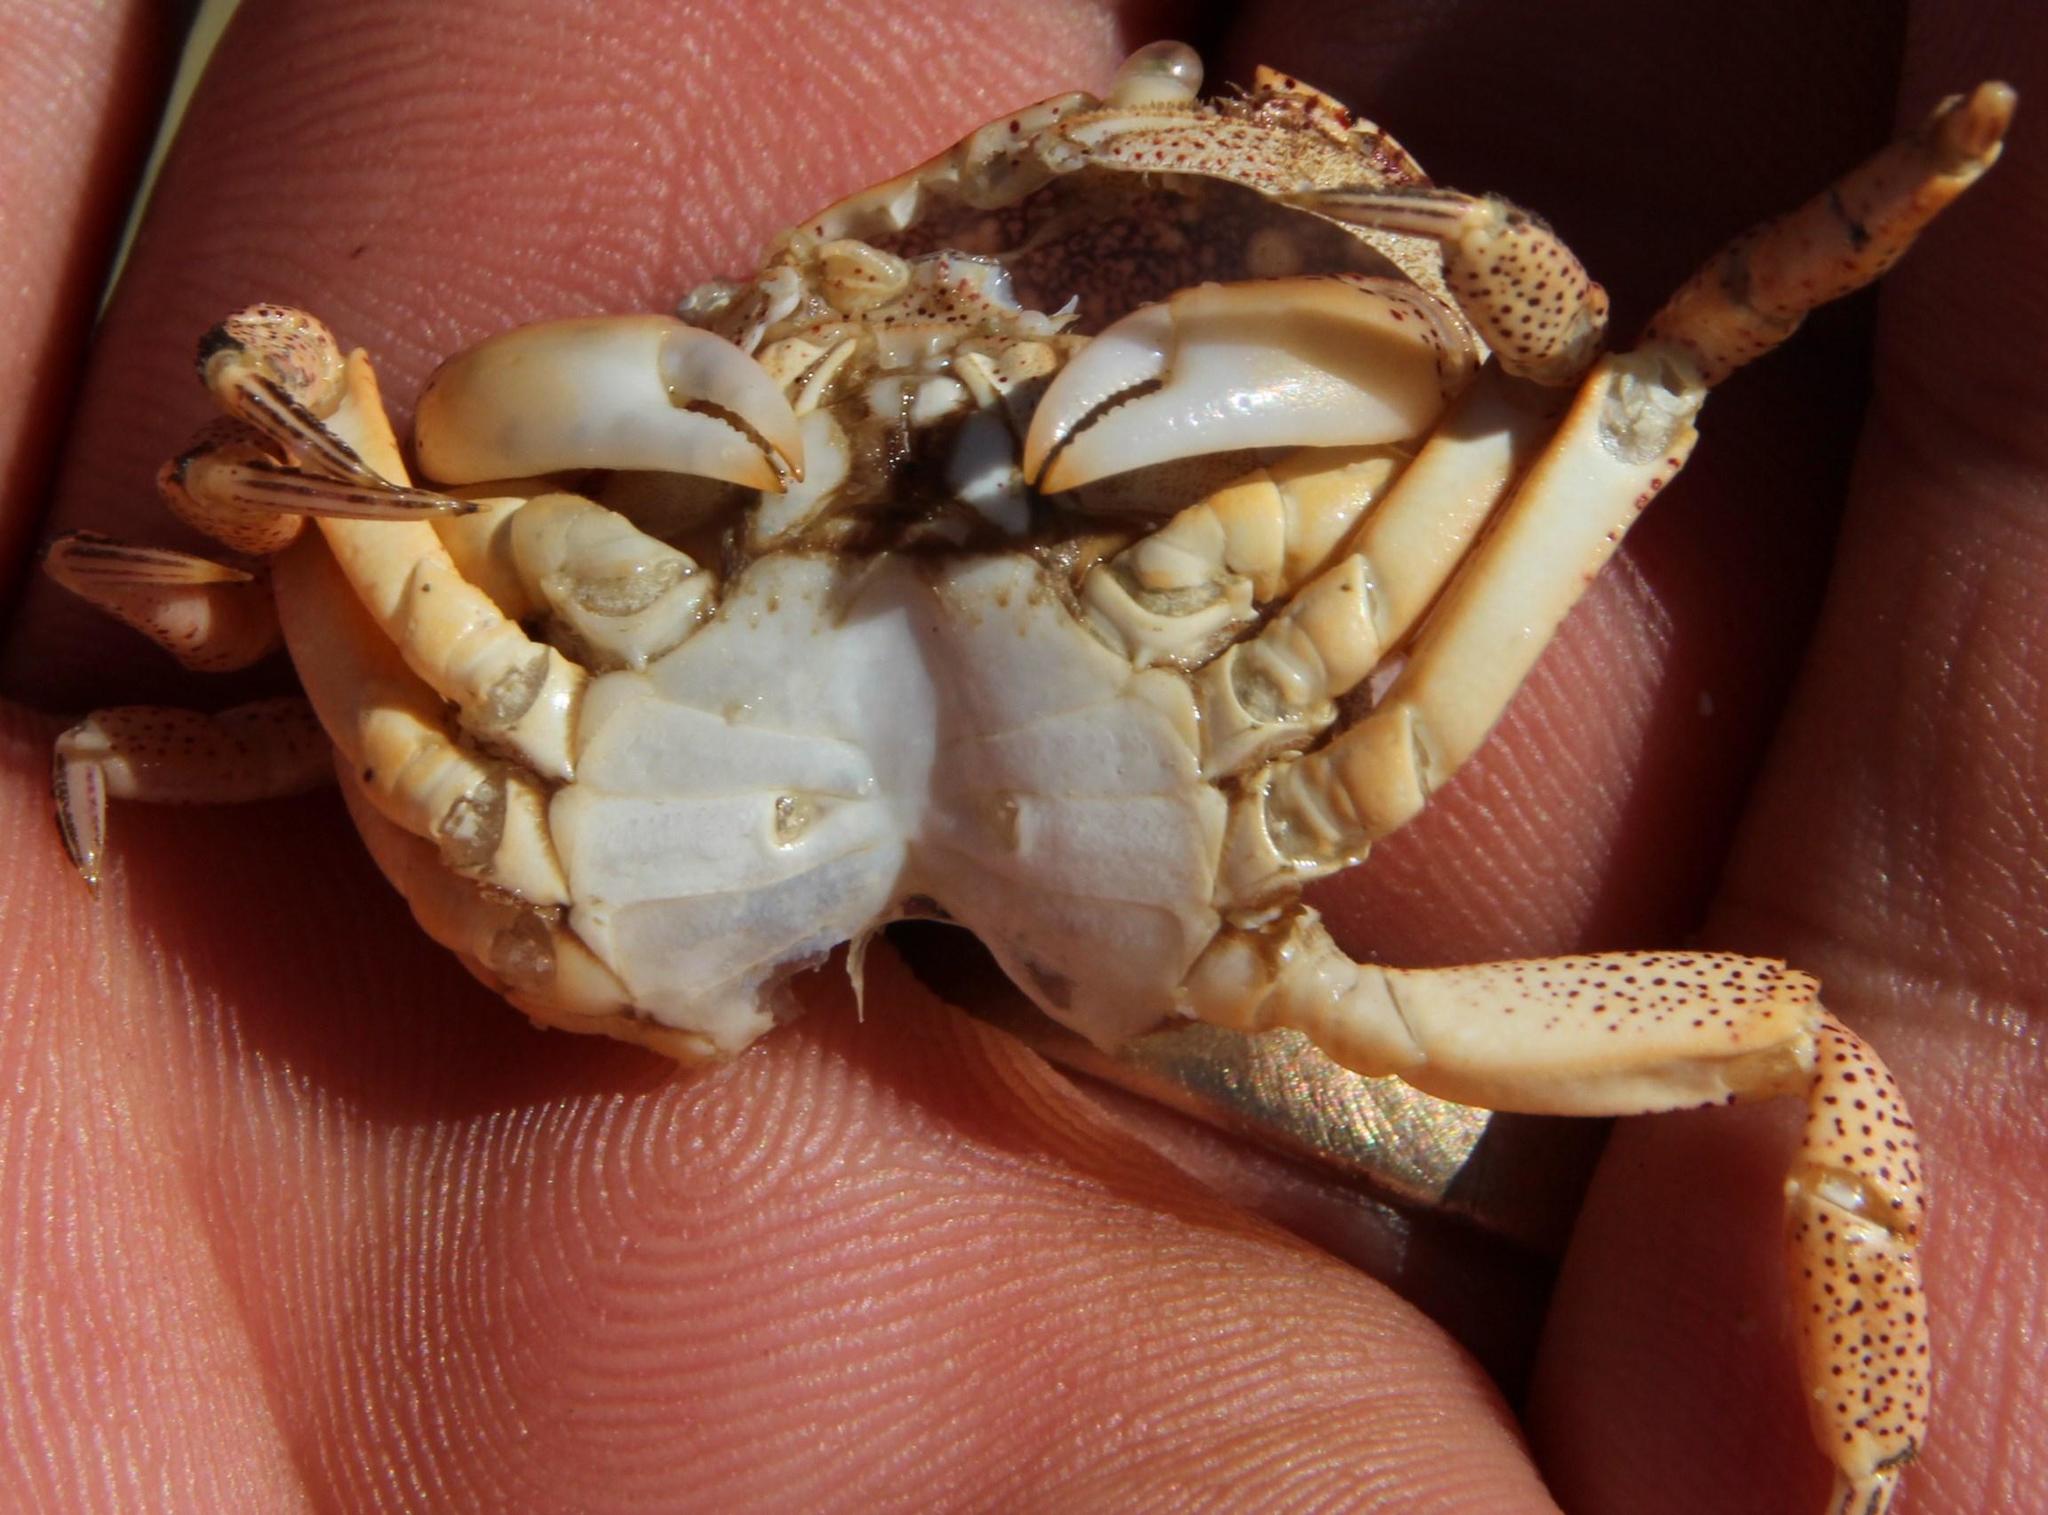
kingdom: Animalia
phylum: Arthropoda
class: Malacostraca
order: Decapoda
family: Varunidae
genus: Cyclograpsus
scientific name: Cyclograpsus punctatus
